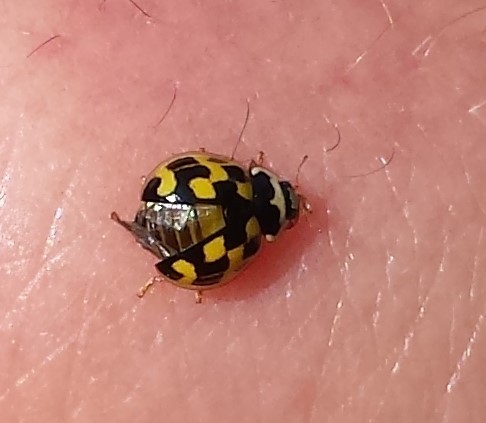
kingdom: Animalia
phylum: Arthropoda
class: Insecta
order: Coleoptera
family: Coccinellidae
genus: Propylaea
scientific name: Propylaea quatuordecimpunctata
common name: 14-spotted ladybird beetle
